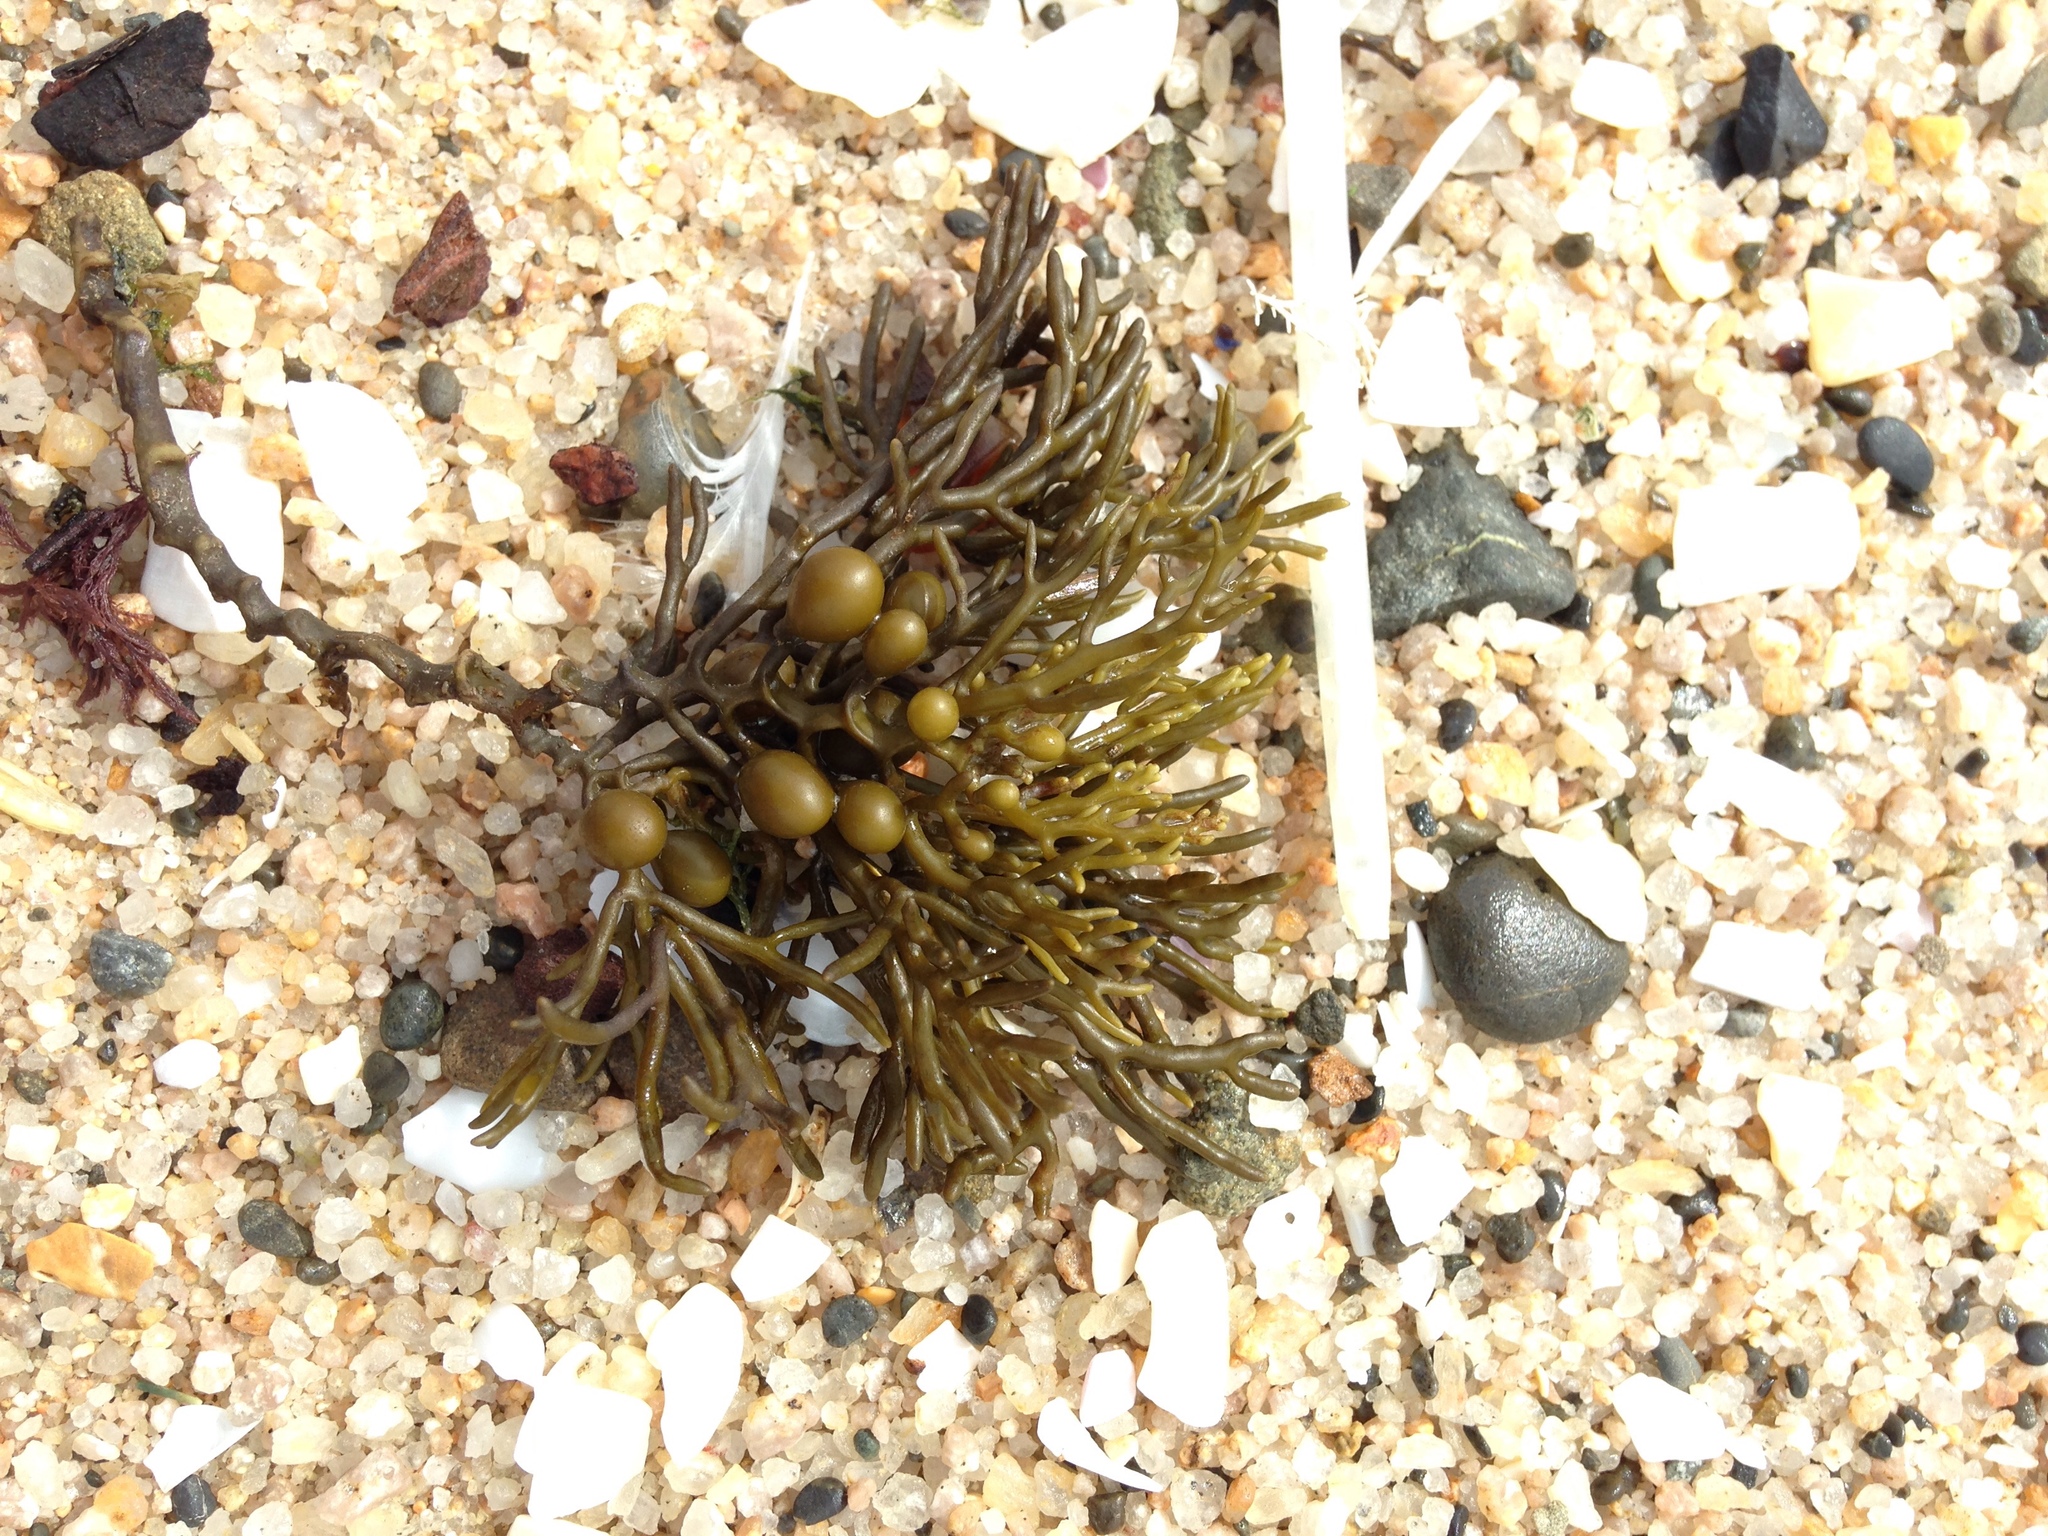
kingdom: Chromista
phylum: Ochrophyta
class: Phaeophyceae
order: Fucales
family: Sargassaceae
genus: Cystophora
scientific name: Cystophora scalaris
